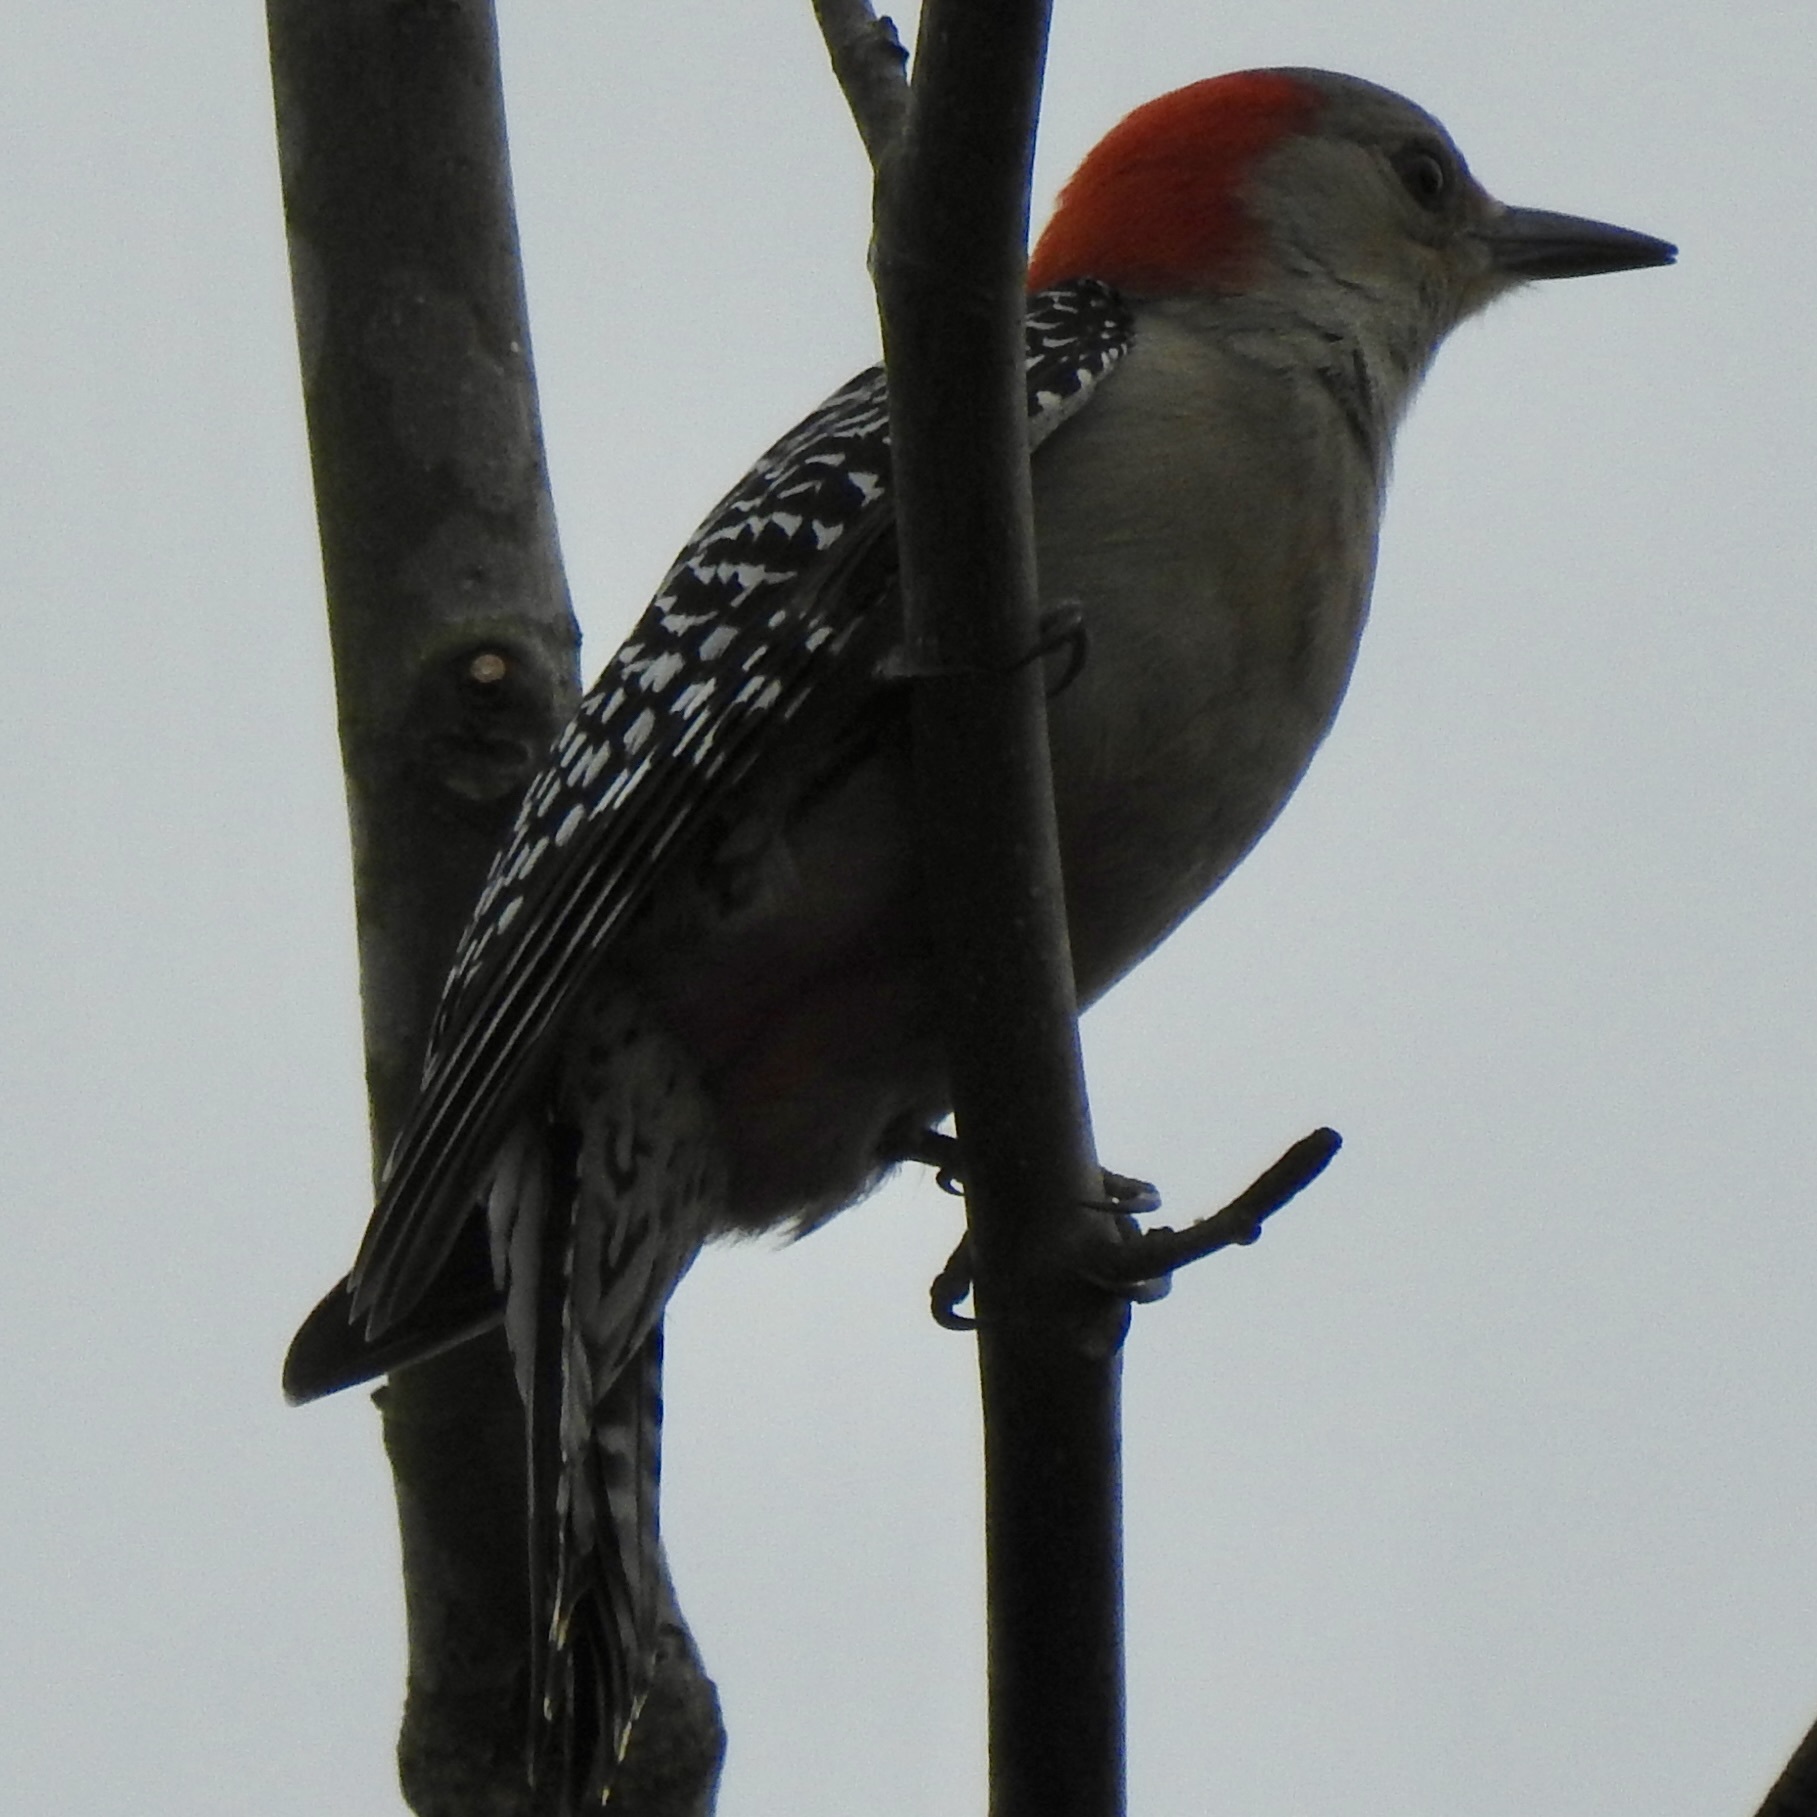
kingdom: Animalia
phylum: Chordata
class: Aves
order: Piciformes
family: Picidae
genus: Melanerpes
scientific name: Melanerpes carolinus
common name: Red-bellied woodpecker
